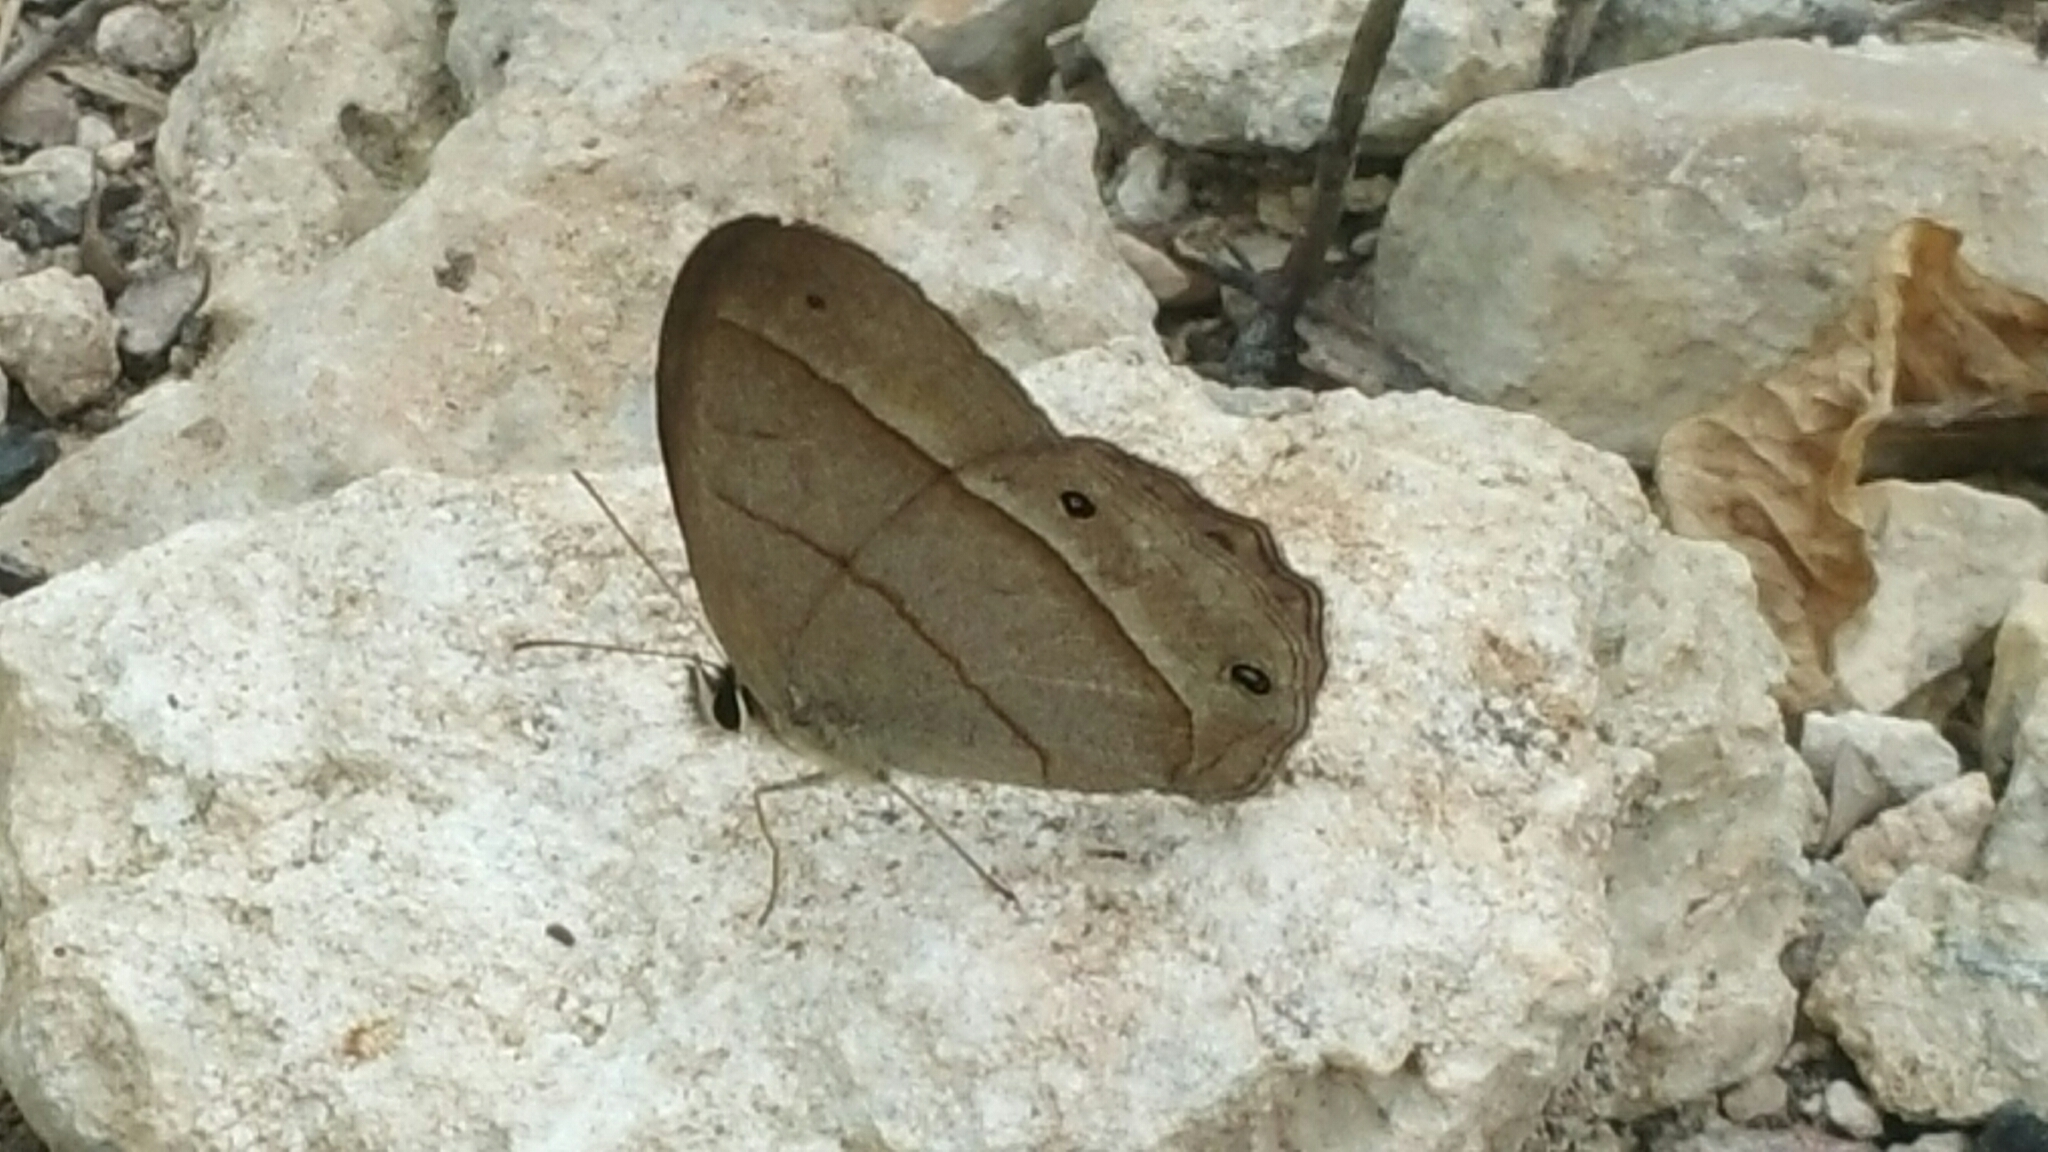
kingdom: Animalia
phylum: Arthropoda
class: Insecta
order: Lepidoptera
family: Nymphalidae
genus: Euptychia
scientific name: Euptychia Cissia pompilia
